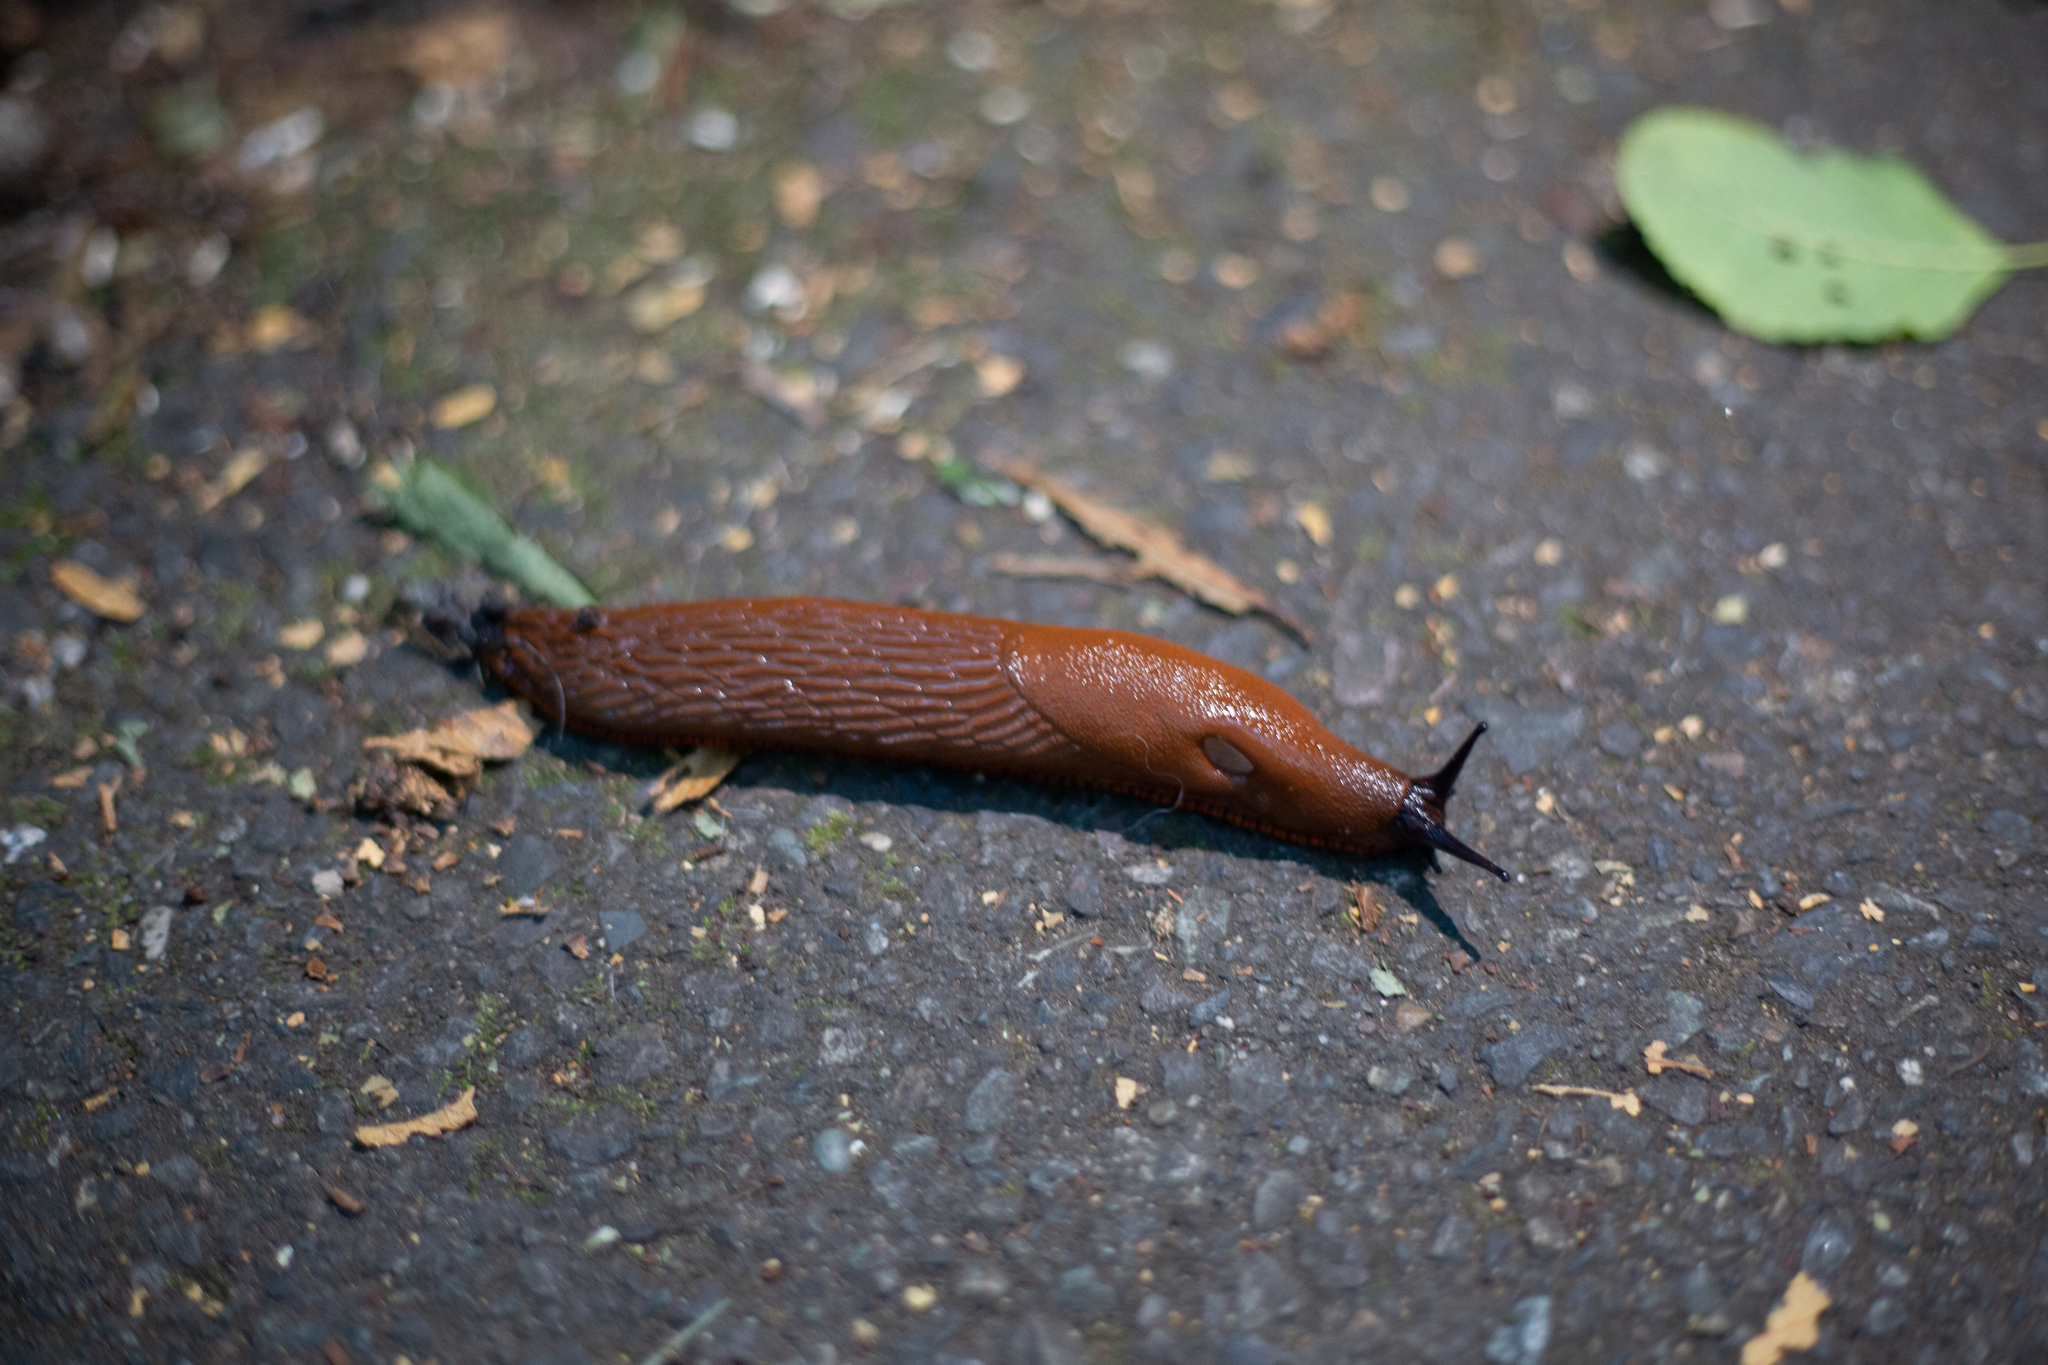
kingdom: Animalia
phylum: Mollusca
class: Gastropoda
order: Stylommatophora
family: Arionidae
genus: Arion
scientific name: Arion
